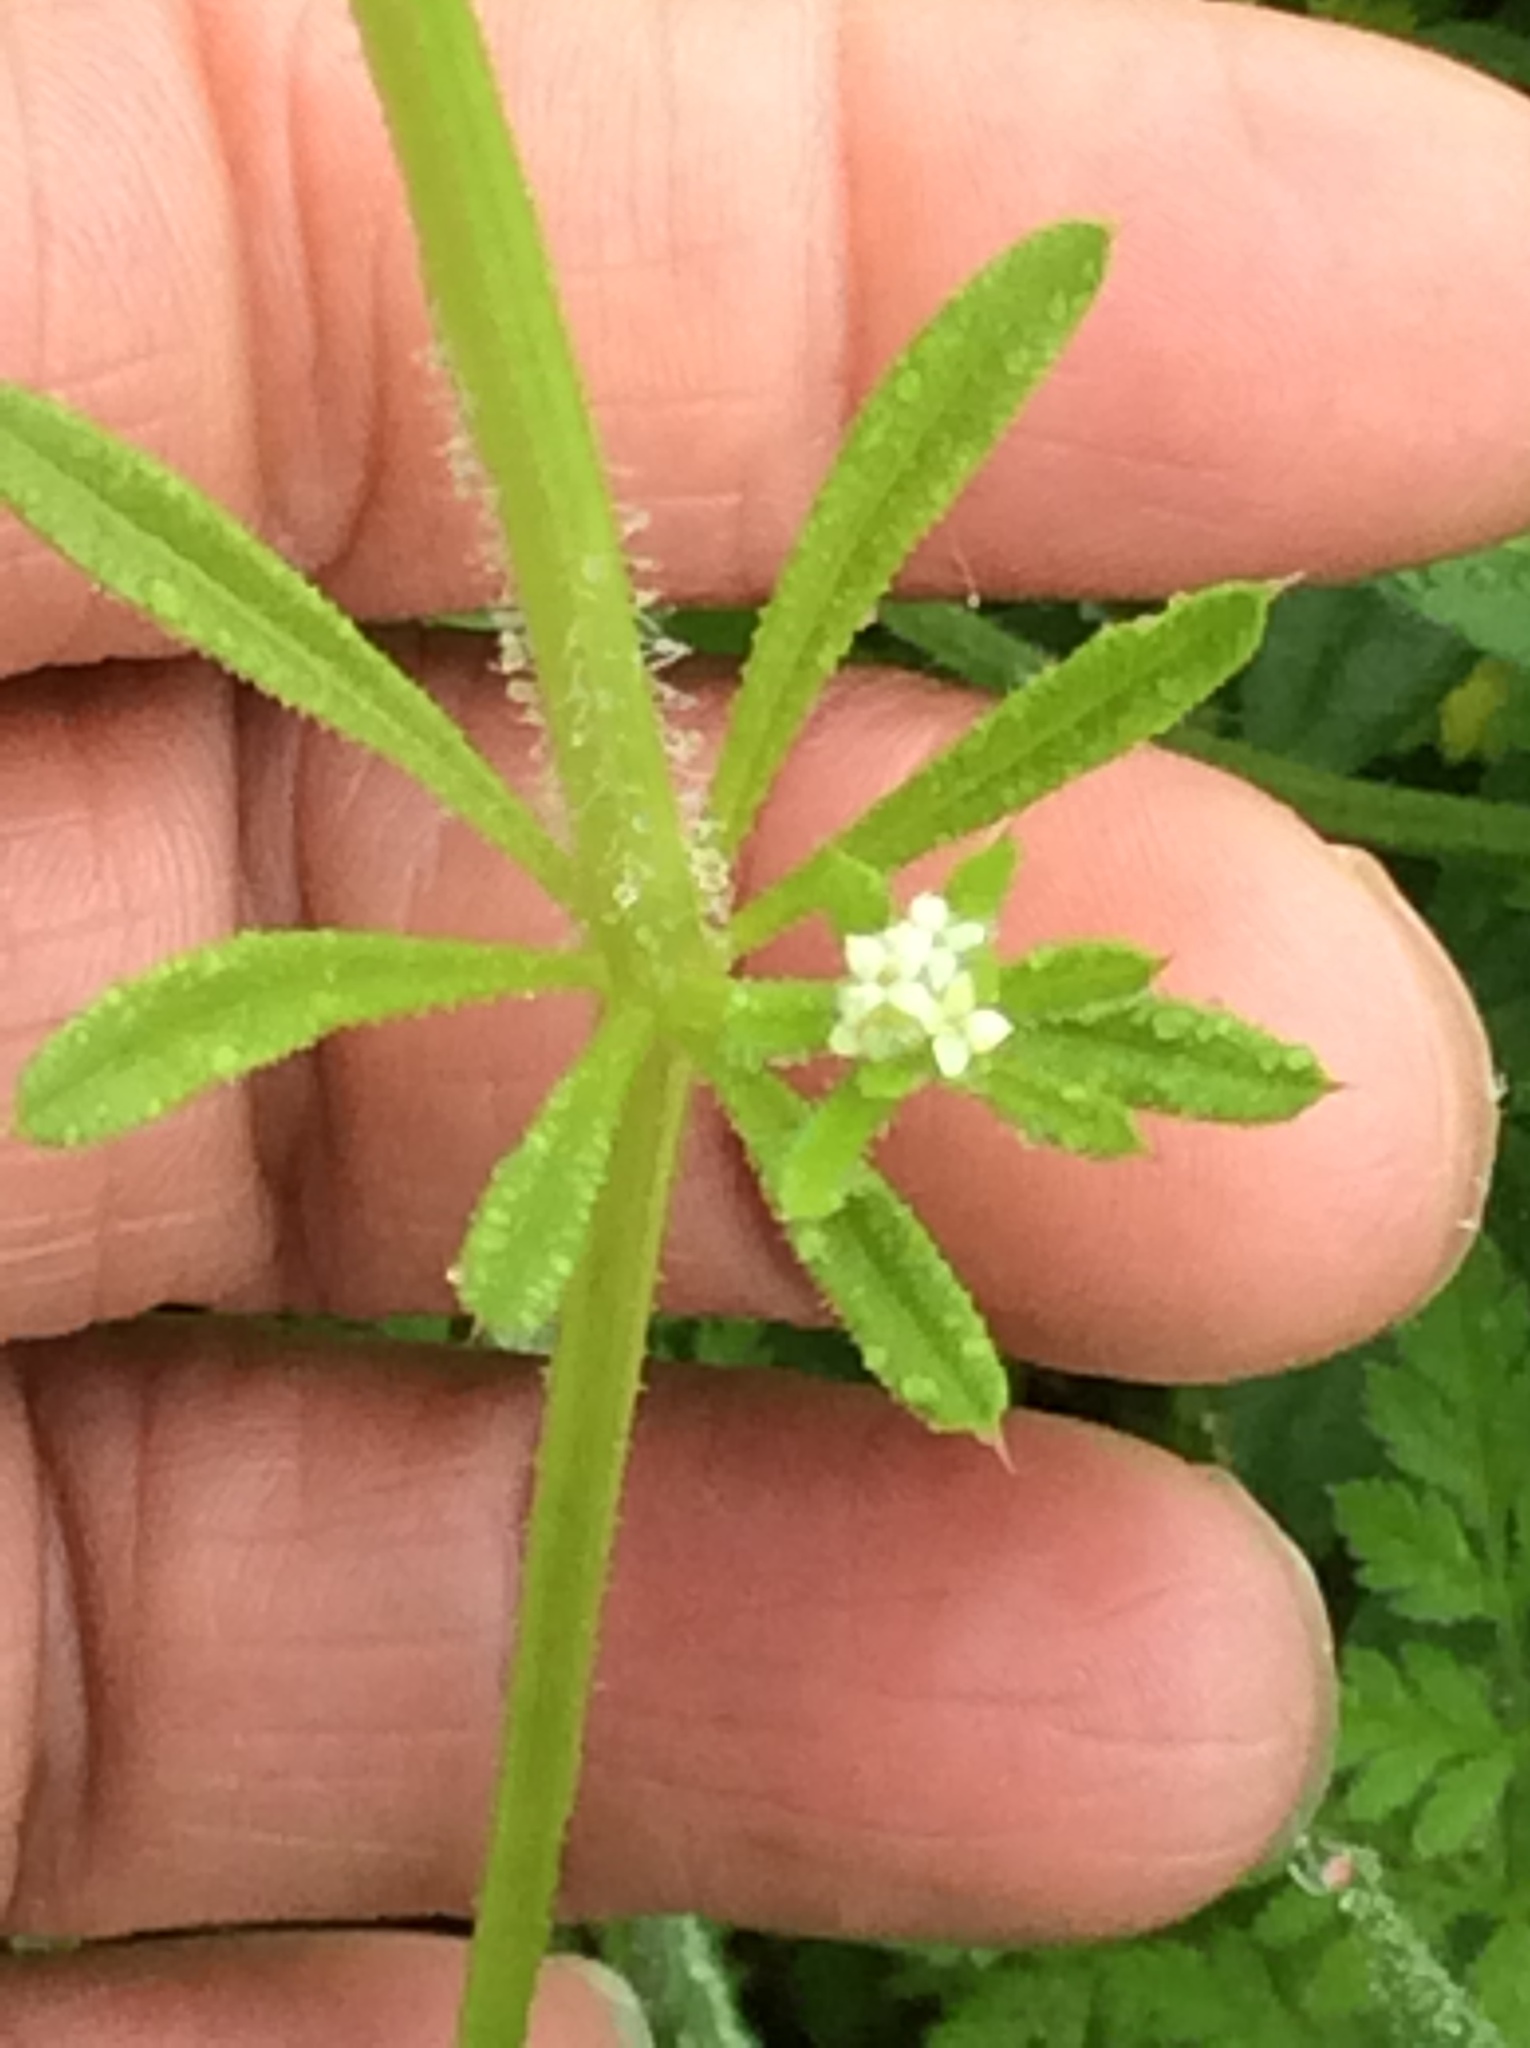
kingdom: Plantae
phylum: Tracheophyta
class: Magnoliopsida
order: Gentianales
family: Rubiaceae
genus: Galium
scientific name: Galium aparine
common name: Cleavers
